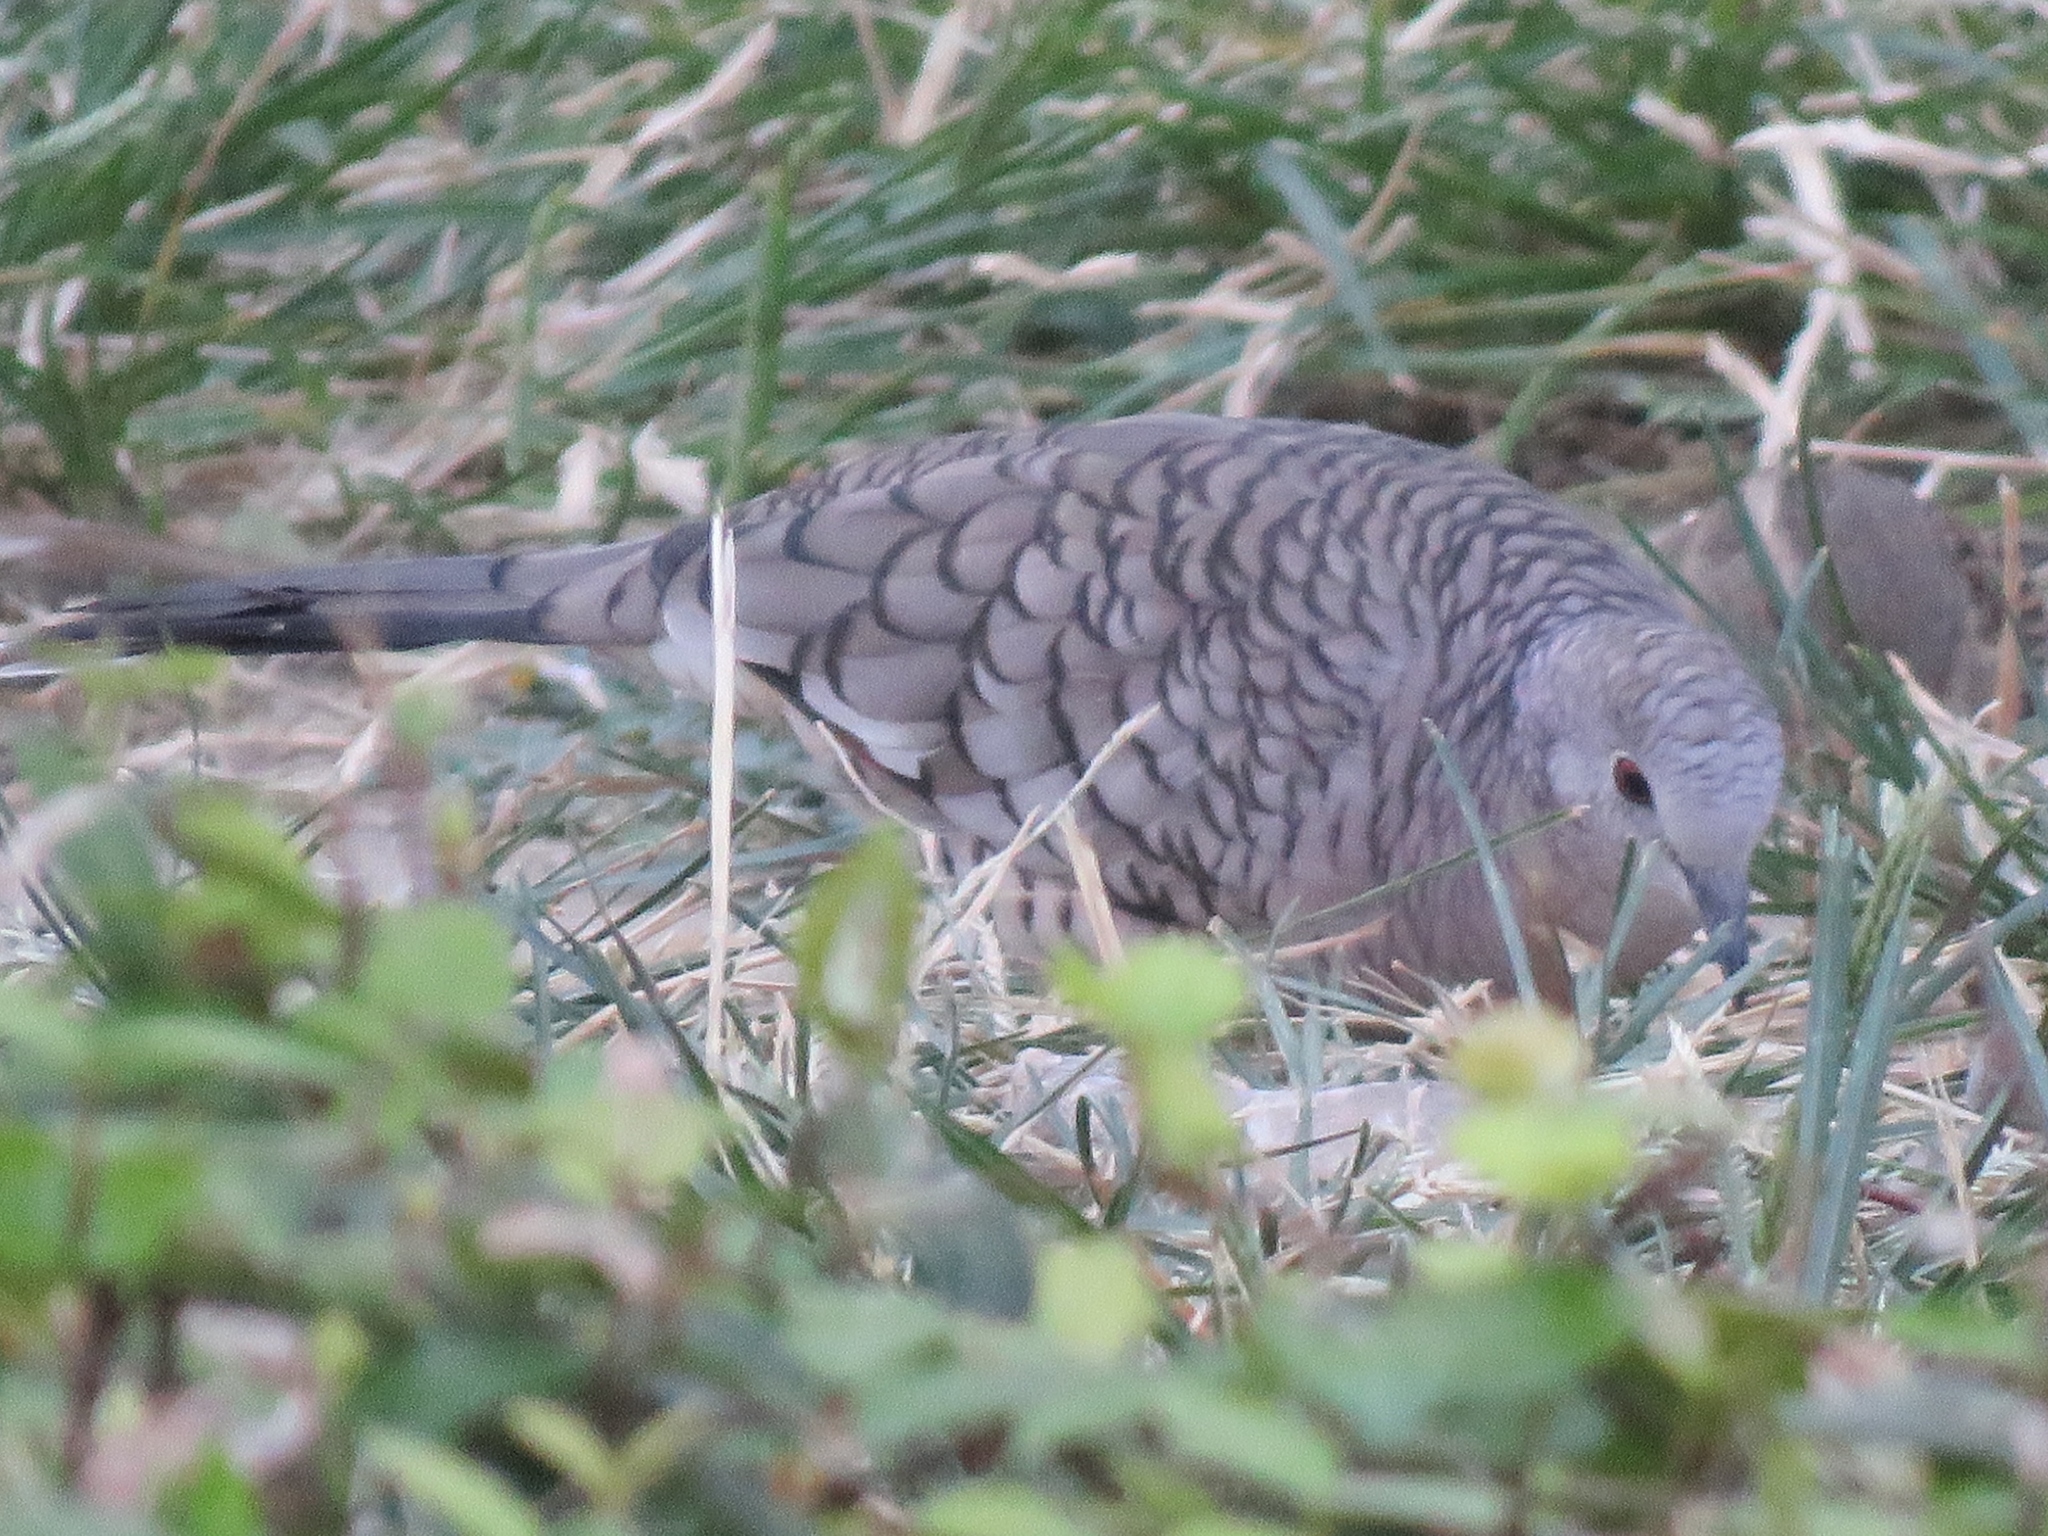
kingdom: Animalia
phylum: Chordata
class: Aves
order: Columbiformes
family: Columbidae
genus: Columbina
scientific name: Columbina inca
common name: Inca dove
